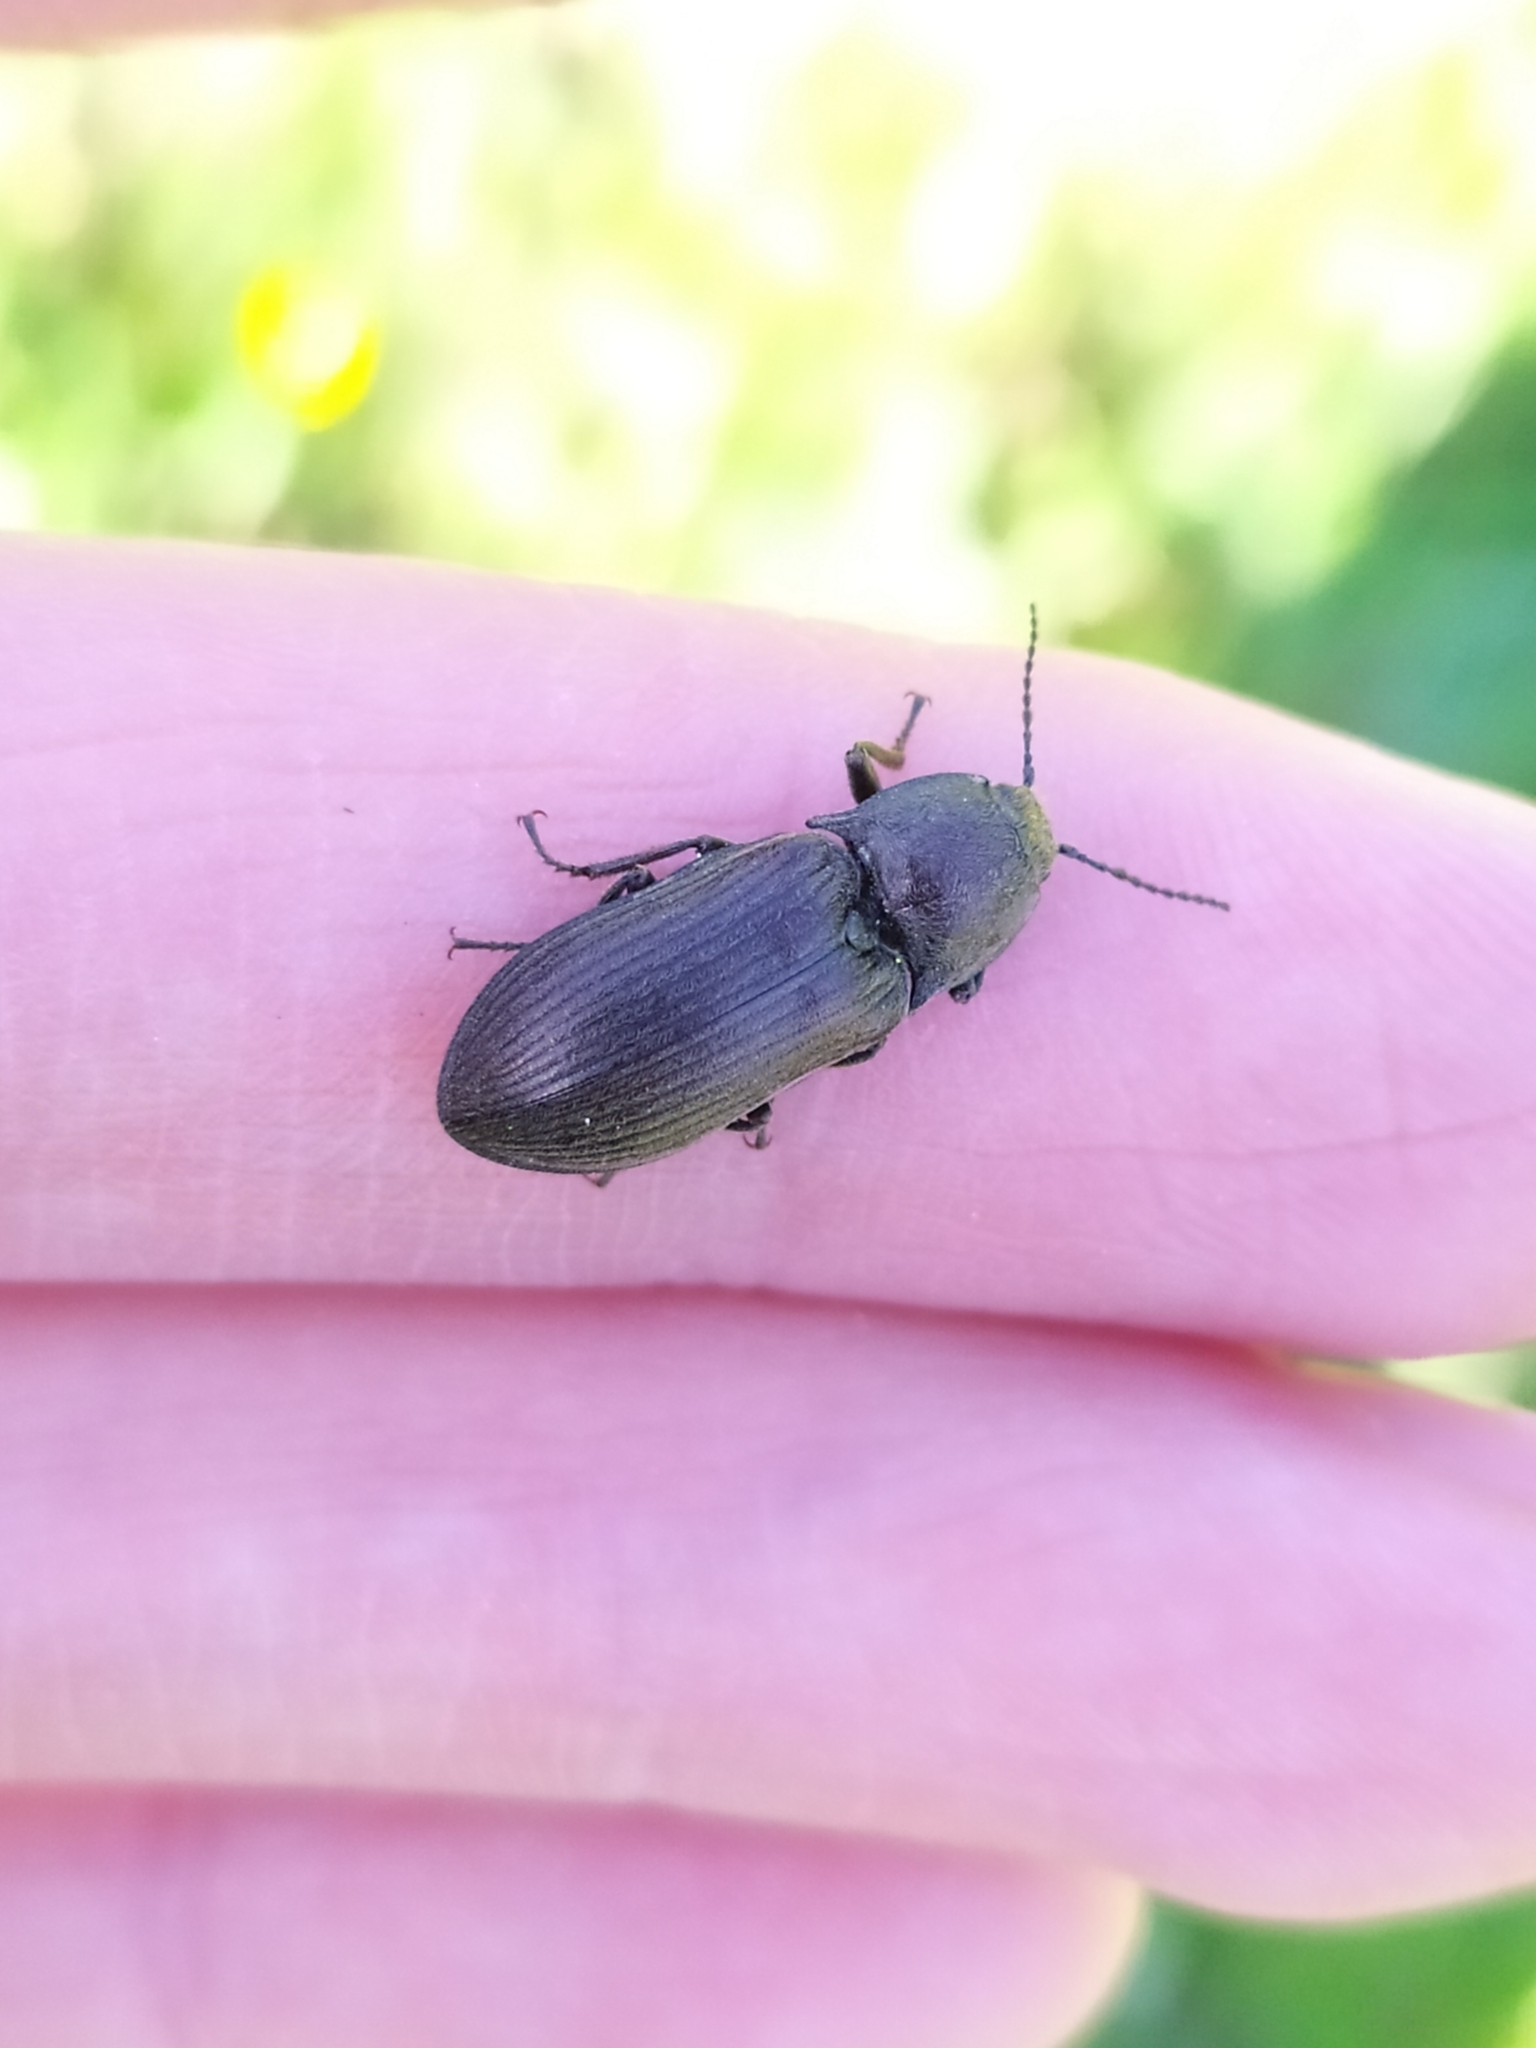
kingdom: Animalia
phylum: Arthropoda
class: Insecta
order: Coleoptera
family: Elateridae
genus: Selatosomus
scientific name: Selatosomus latus
